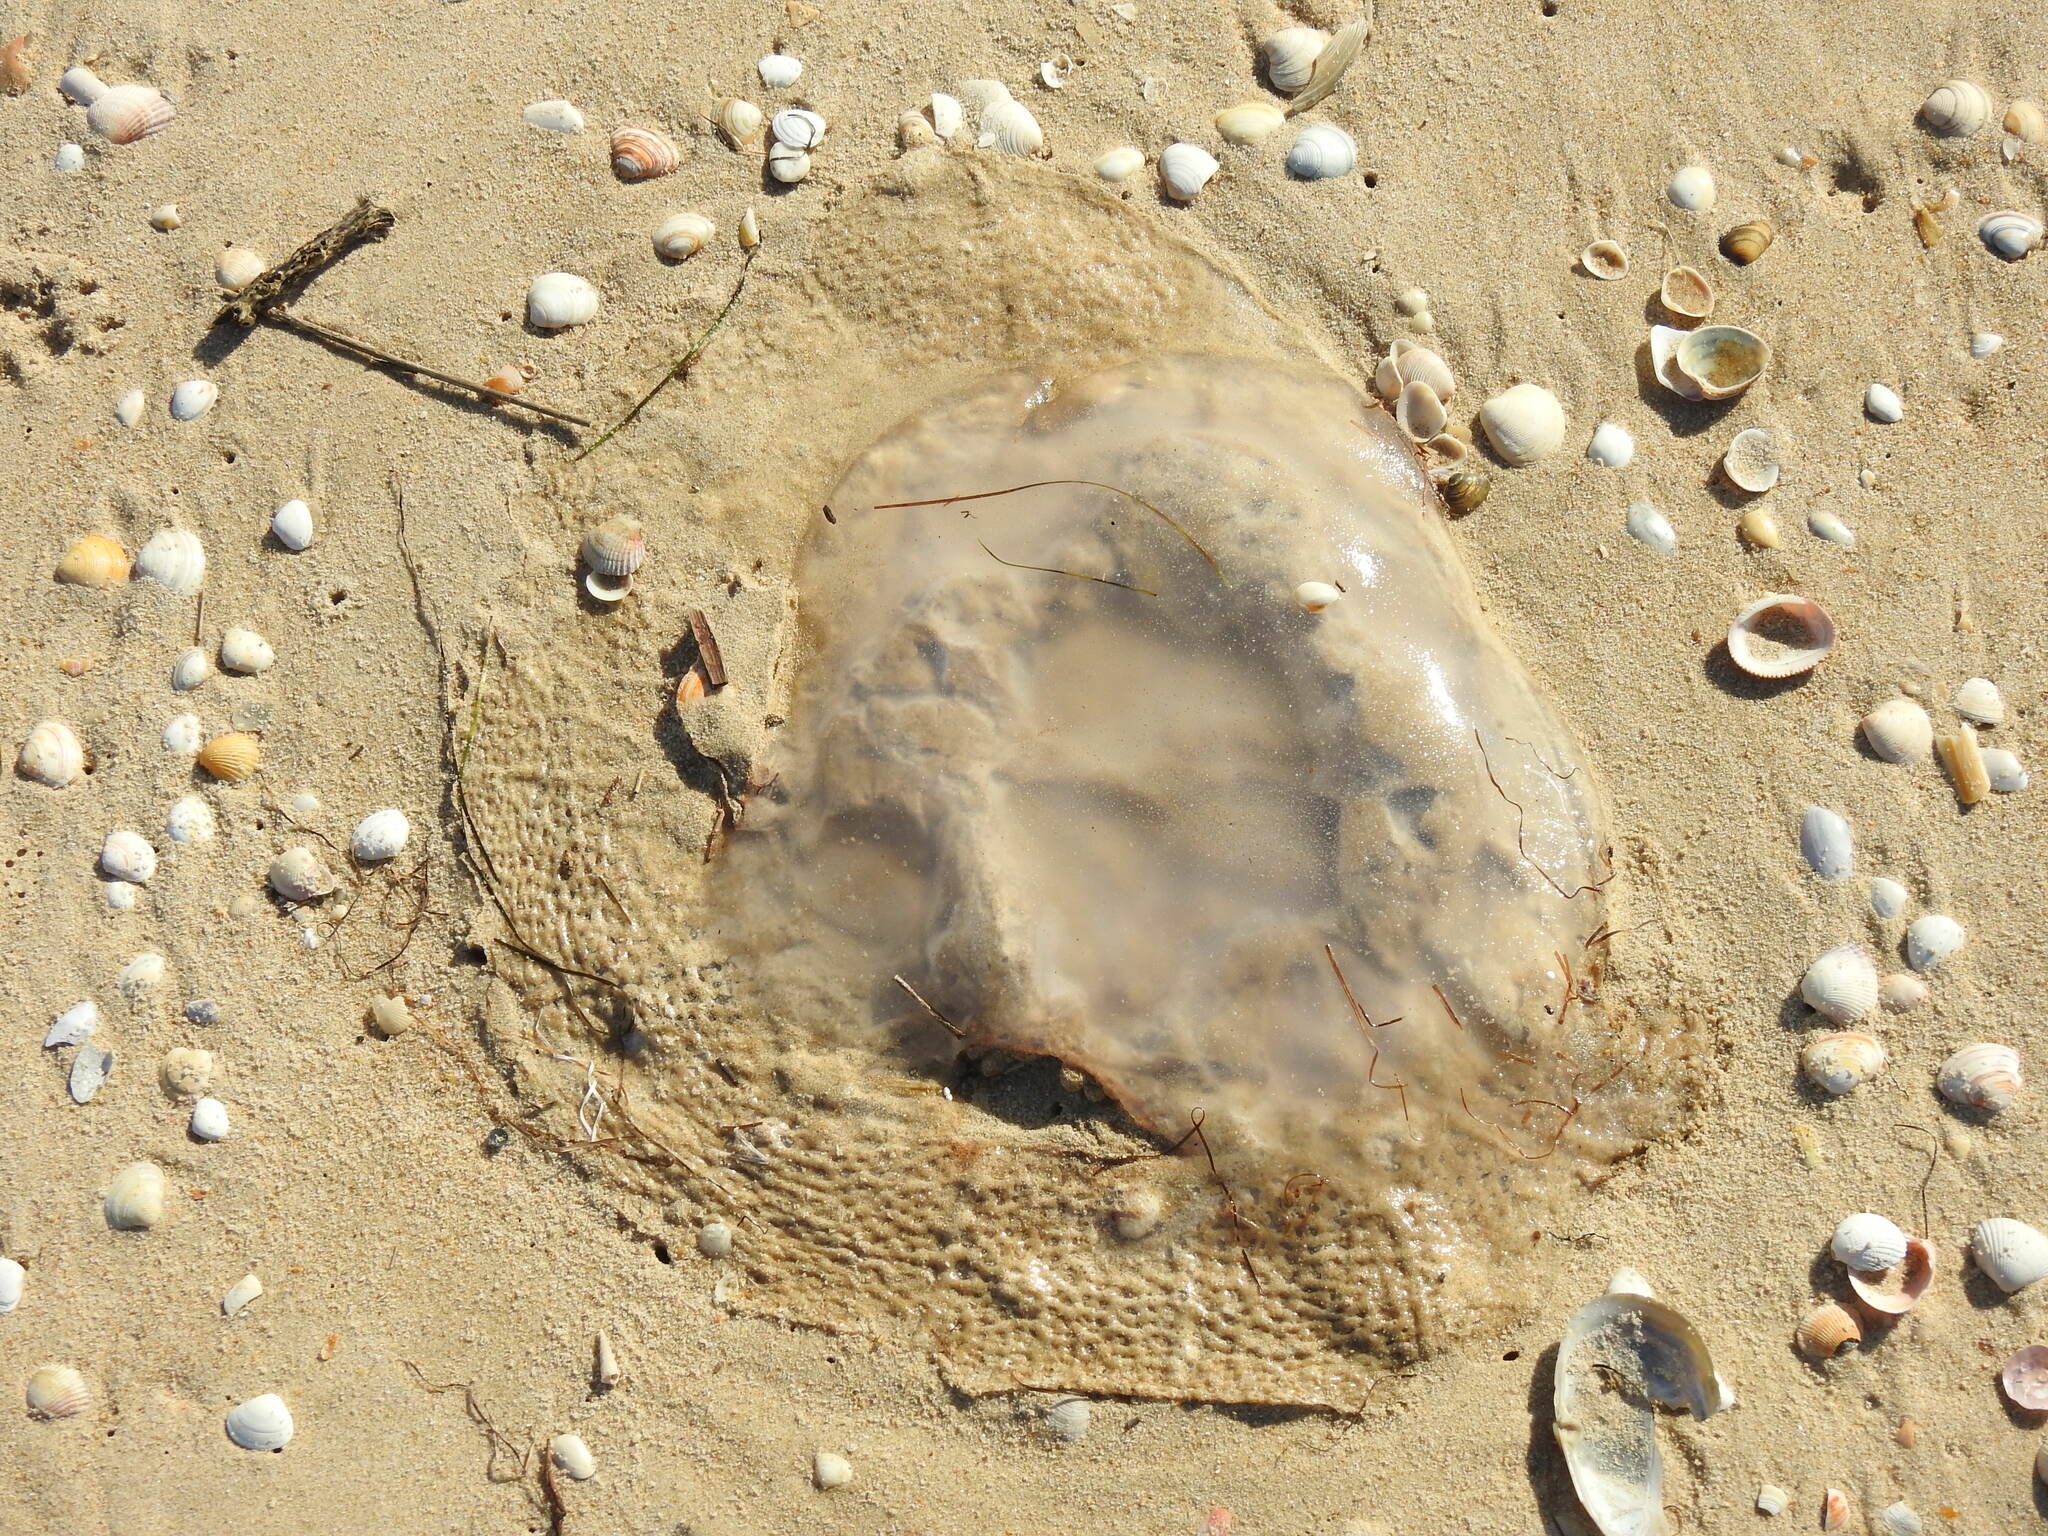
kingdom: Animalia
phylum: Cnidaria
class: Scyphozoa
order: Rhizostomeae
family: Rhizostomatidae
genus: Rhizostoma
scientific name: Rhizostoma luteum
